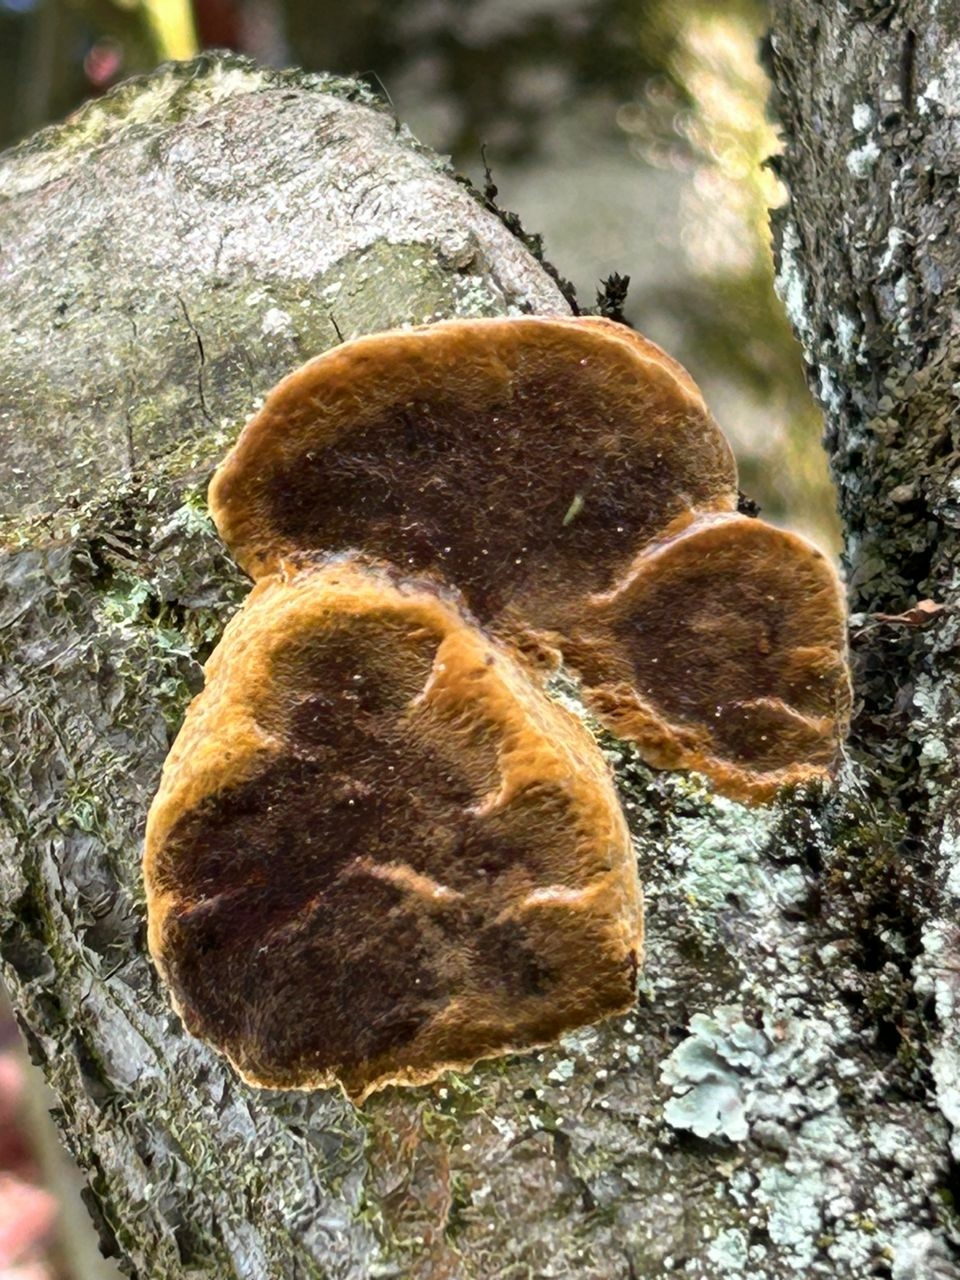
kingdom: Fungi
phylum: Basidiomycota
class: Agaricomycetes
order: Hymenochaetales
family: Hymenochaetaceae
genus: Phellinus
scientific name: Phellinus pomaceus
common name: Cushion bracket
